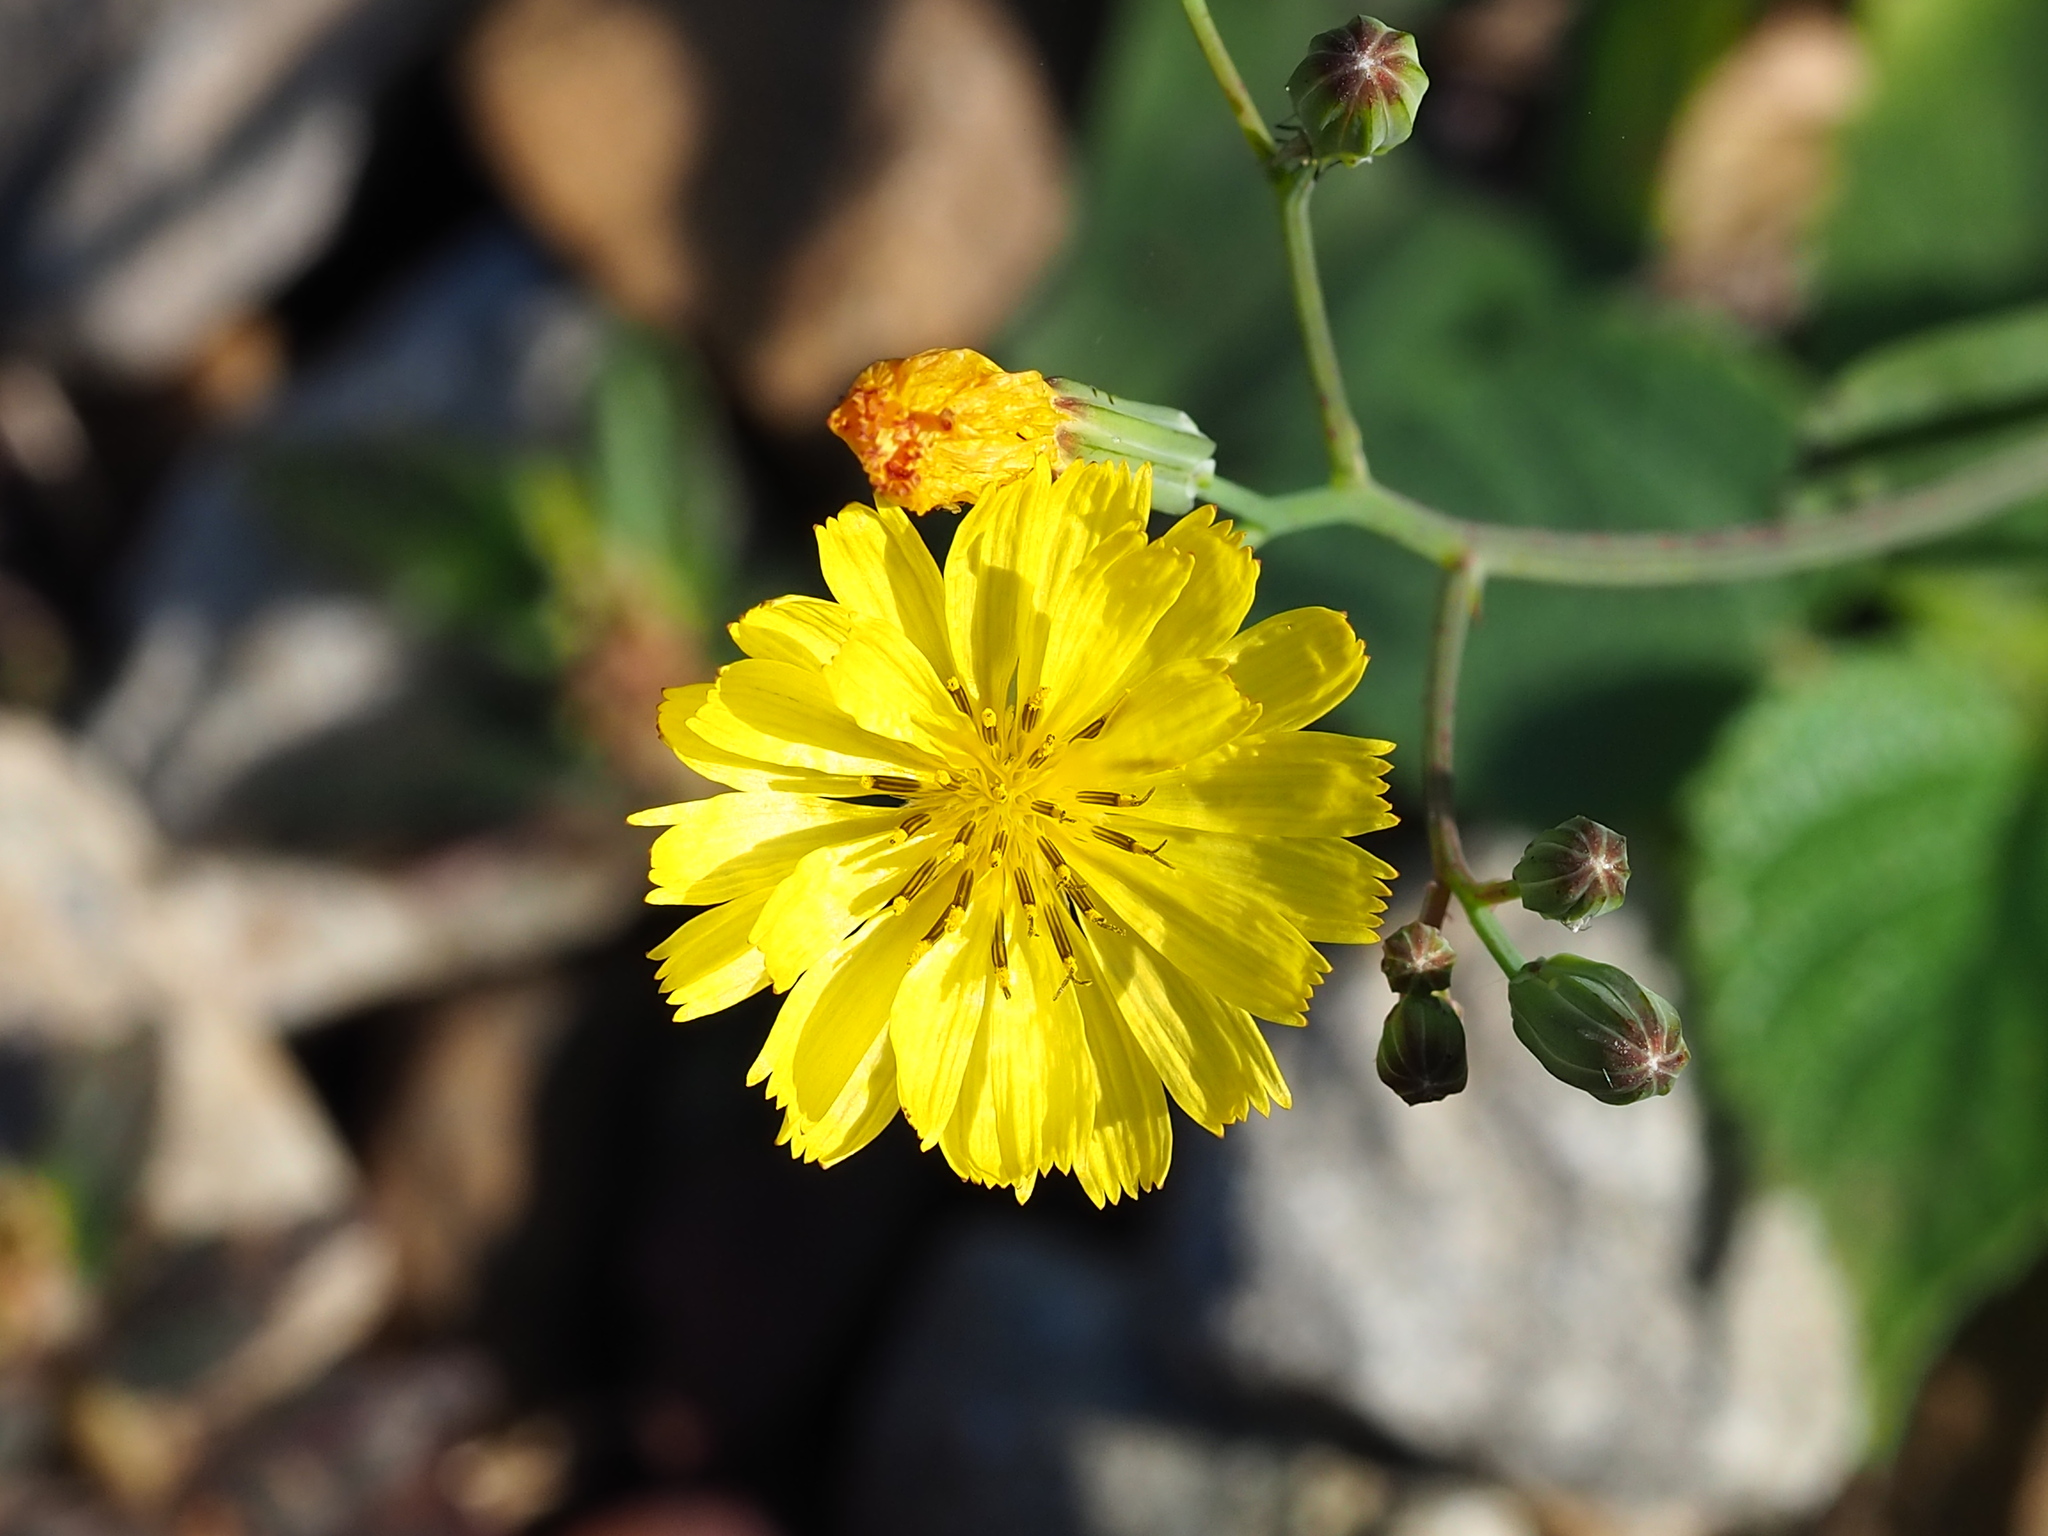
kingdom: Plantae
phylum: Tracheophyta
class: Magnoliopsida
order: Asterales
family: Asteraceae
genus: Ixeris
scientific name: Ixeris chinensis
